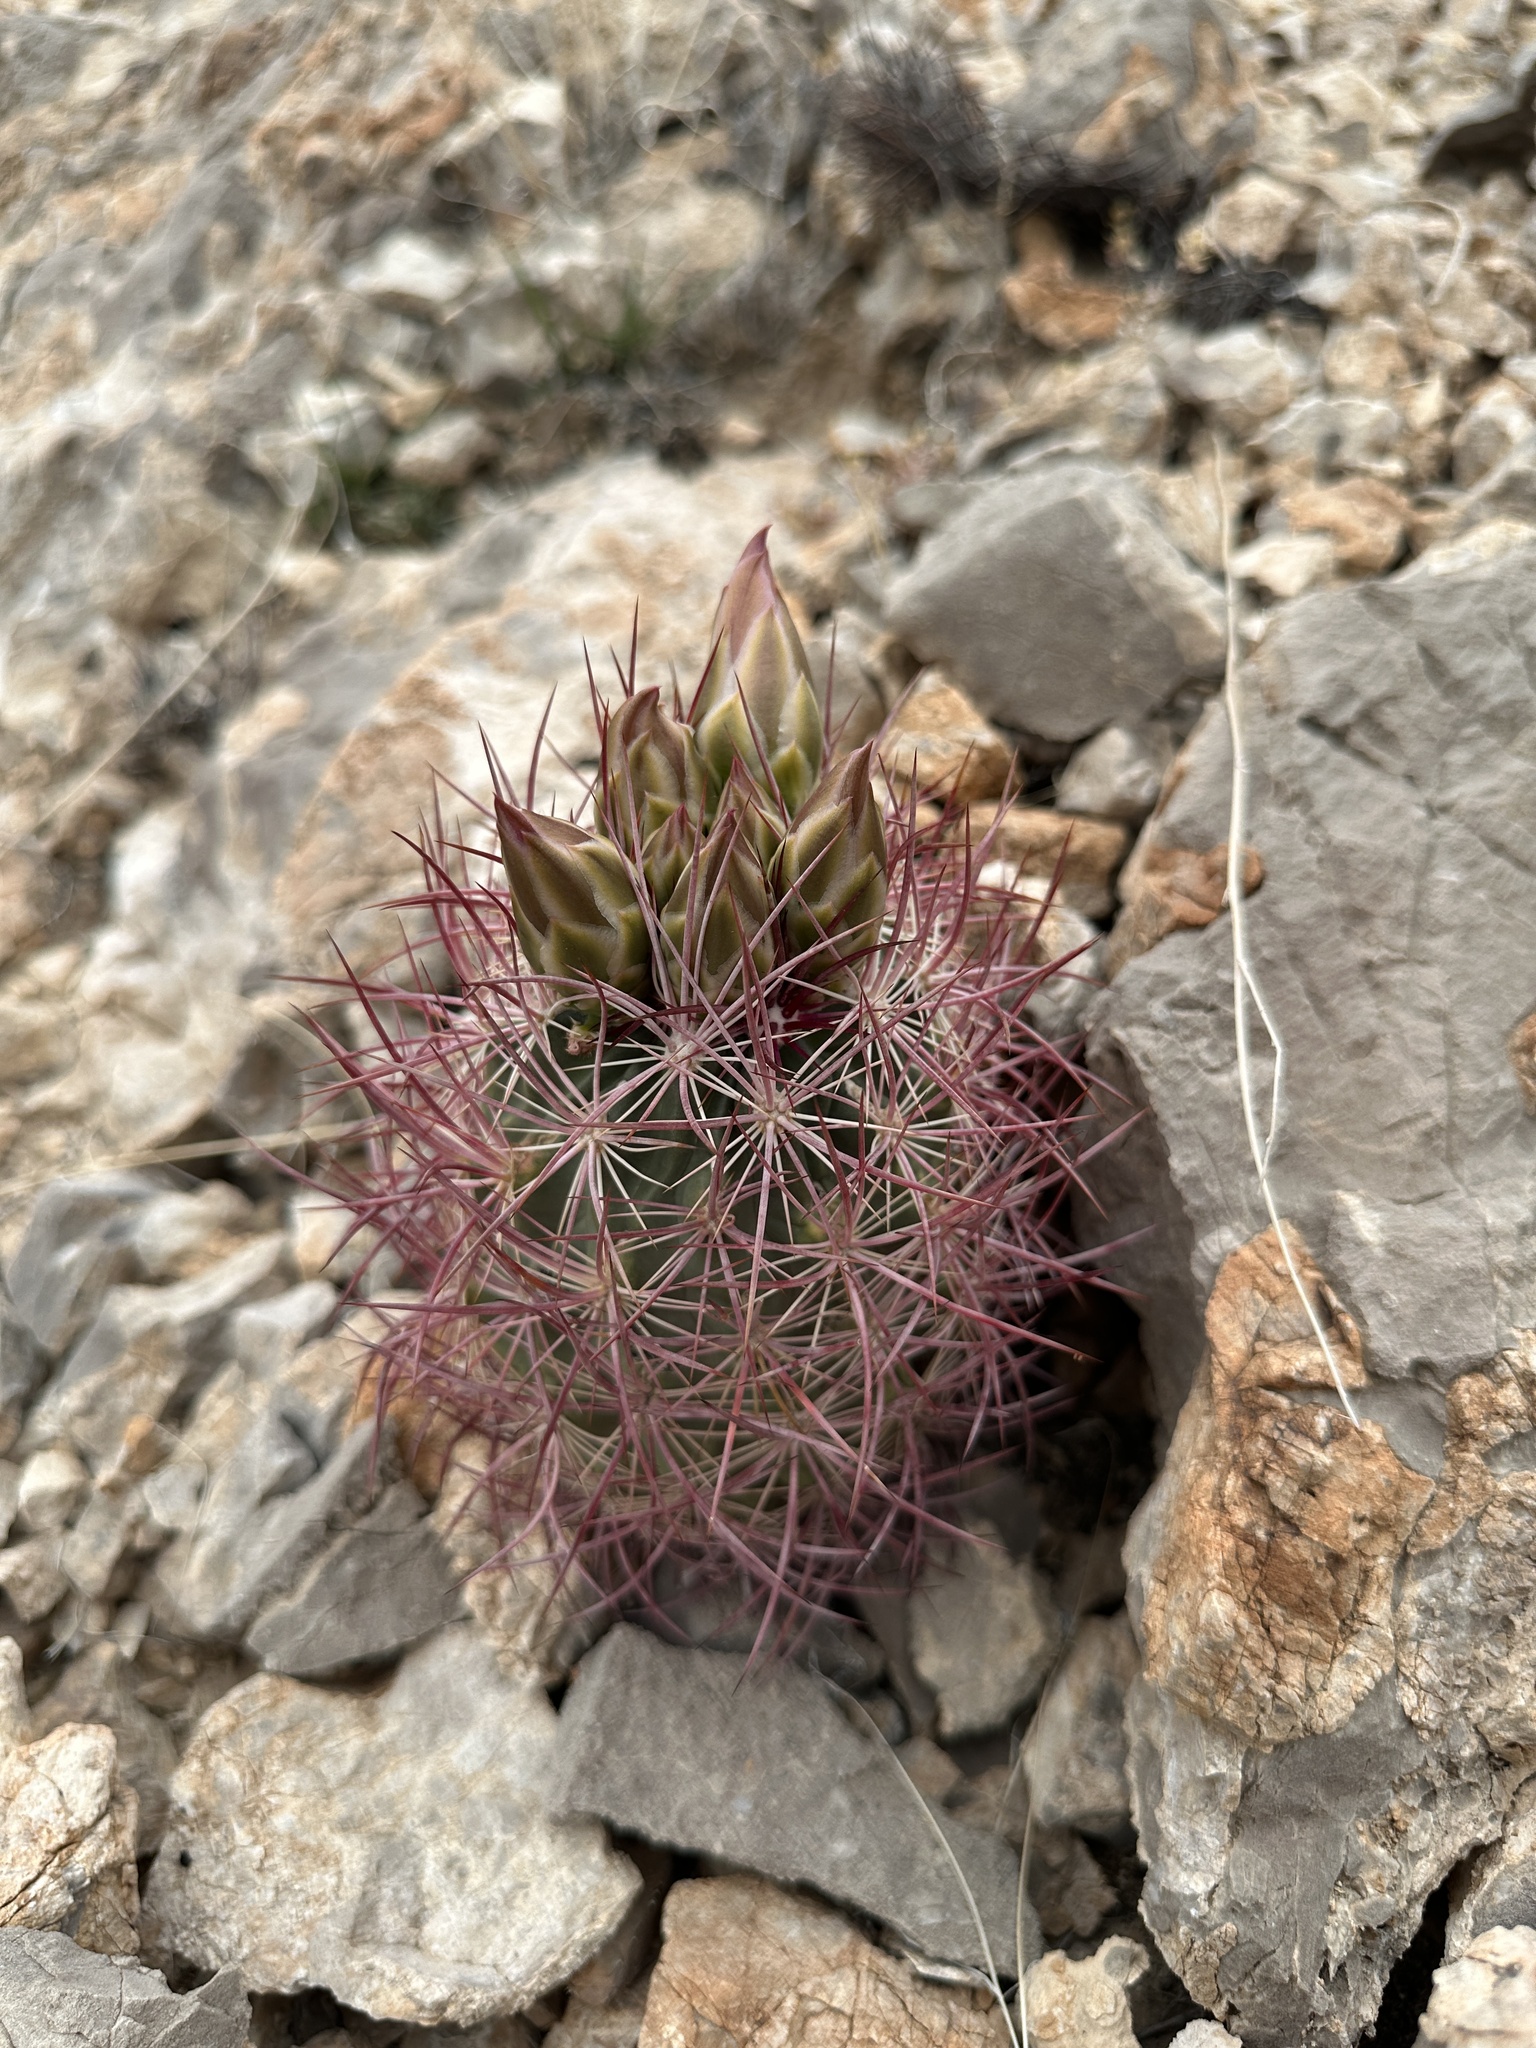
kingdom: Plantae
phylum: Tracheophyta
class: Magnoliopsida
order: Caryophyllales
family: Cactaceae
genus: Sclerocactus
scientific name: Sclerocactus johnsonii
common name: Eight-spine fishhook cactus
